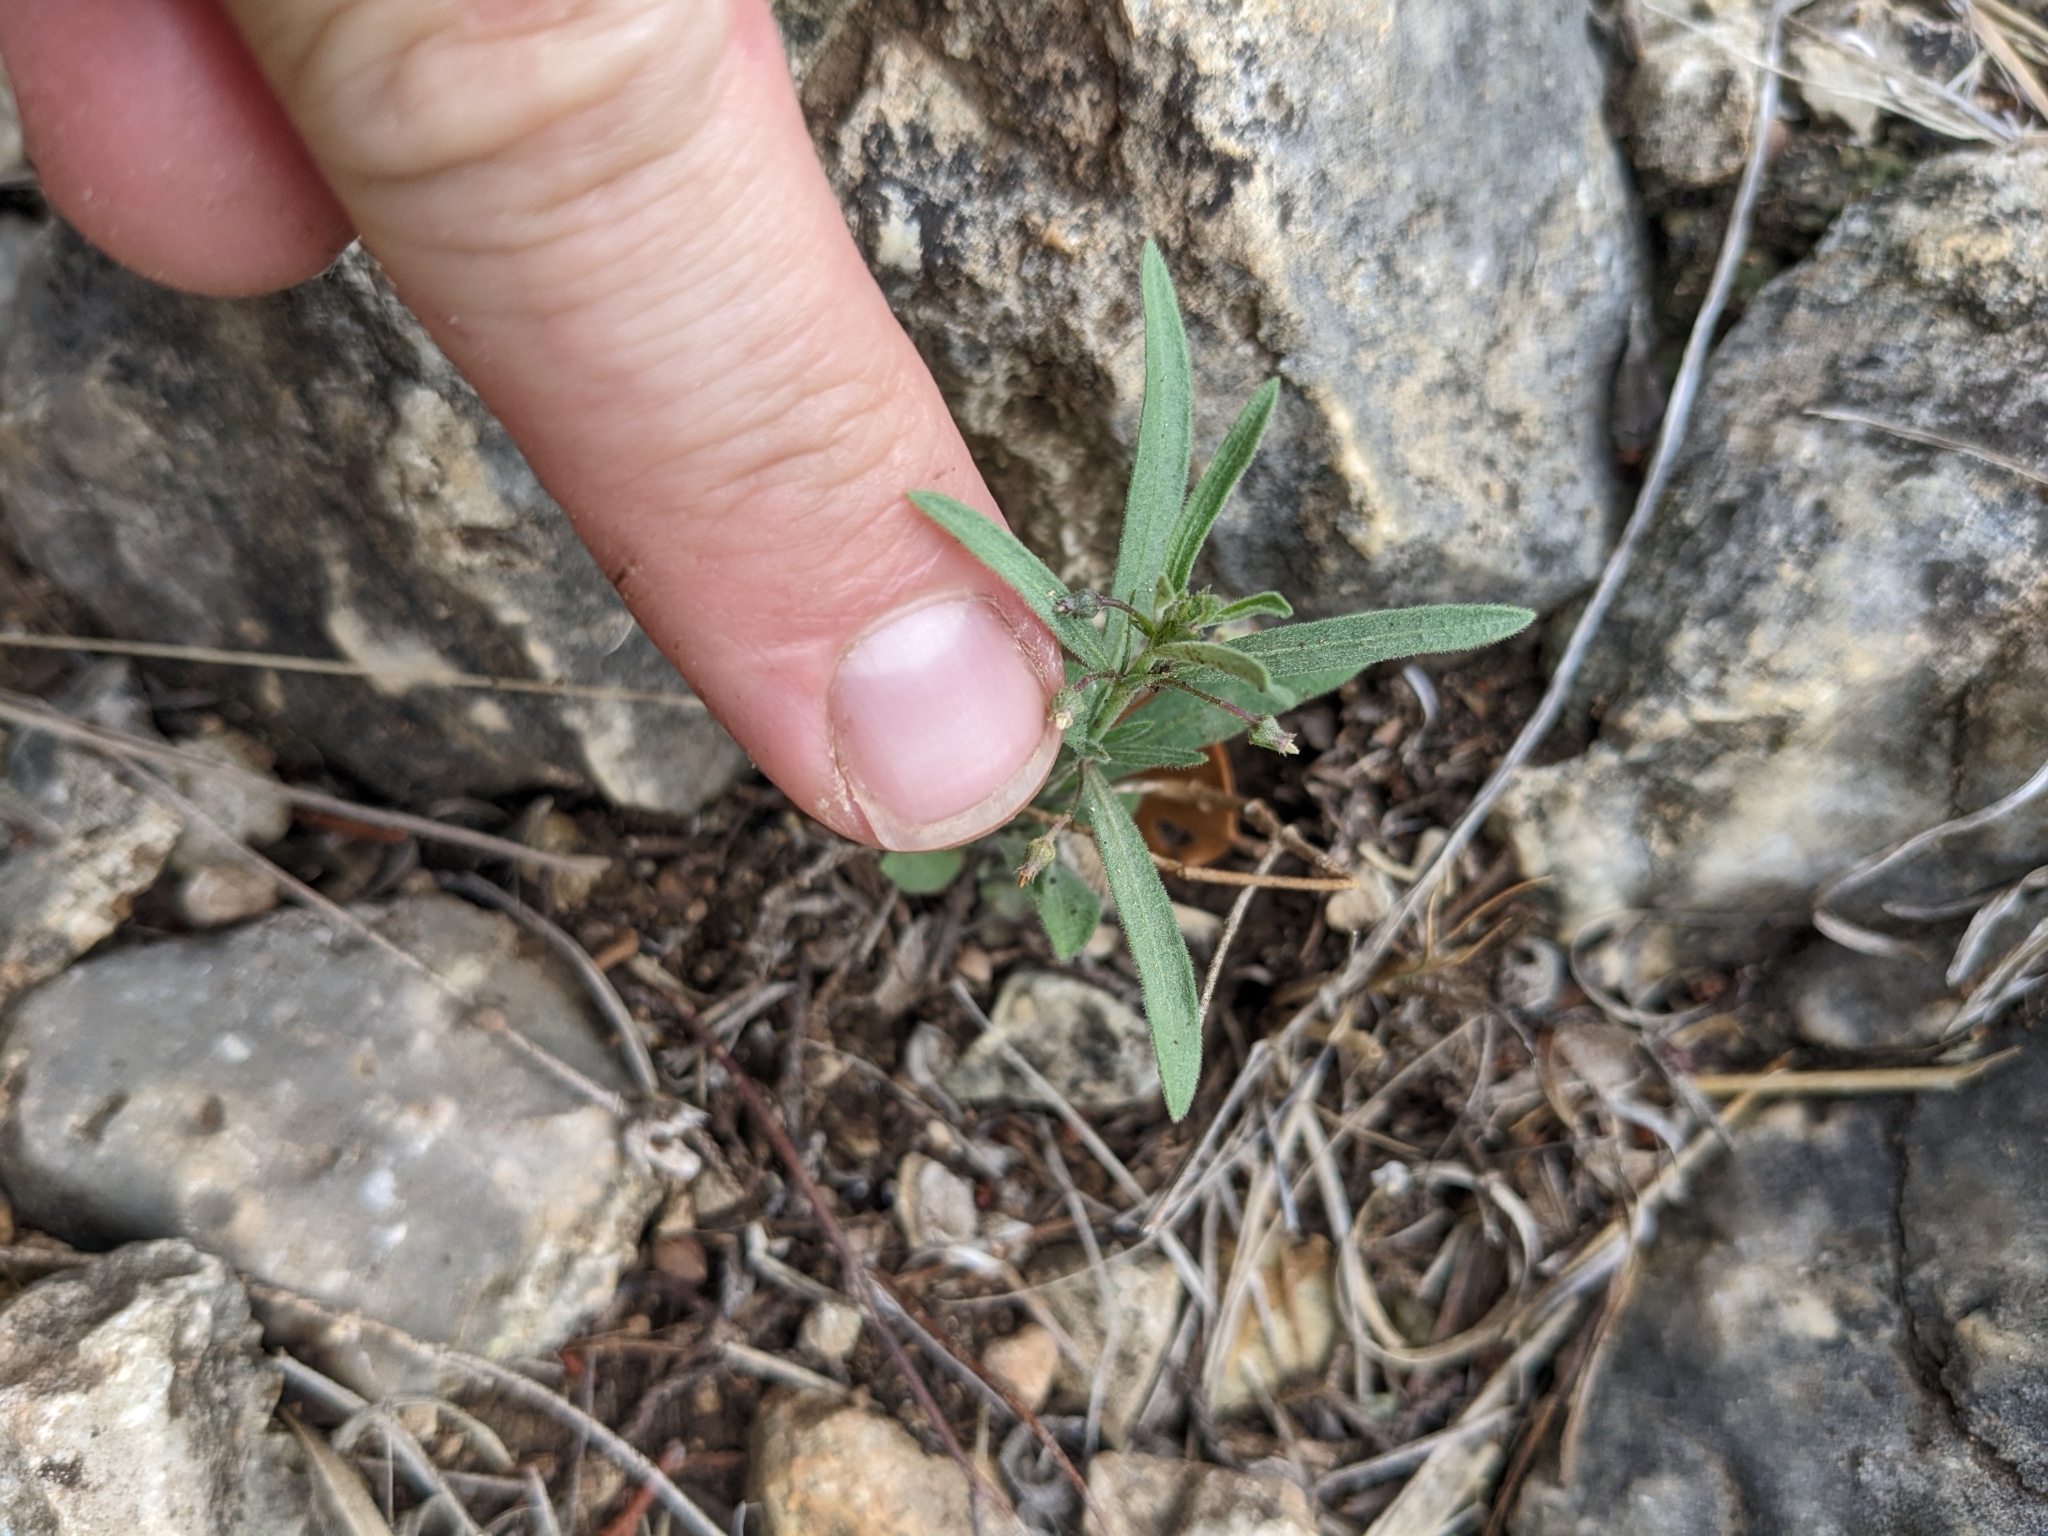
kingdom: Plantae
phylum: Tracheophyta
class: Magnoliopsida
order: Malpighiales
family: Violaceae
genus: Pombalia
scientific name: Pombalia verticillata
